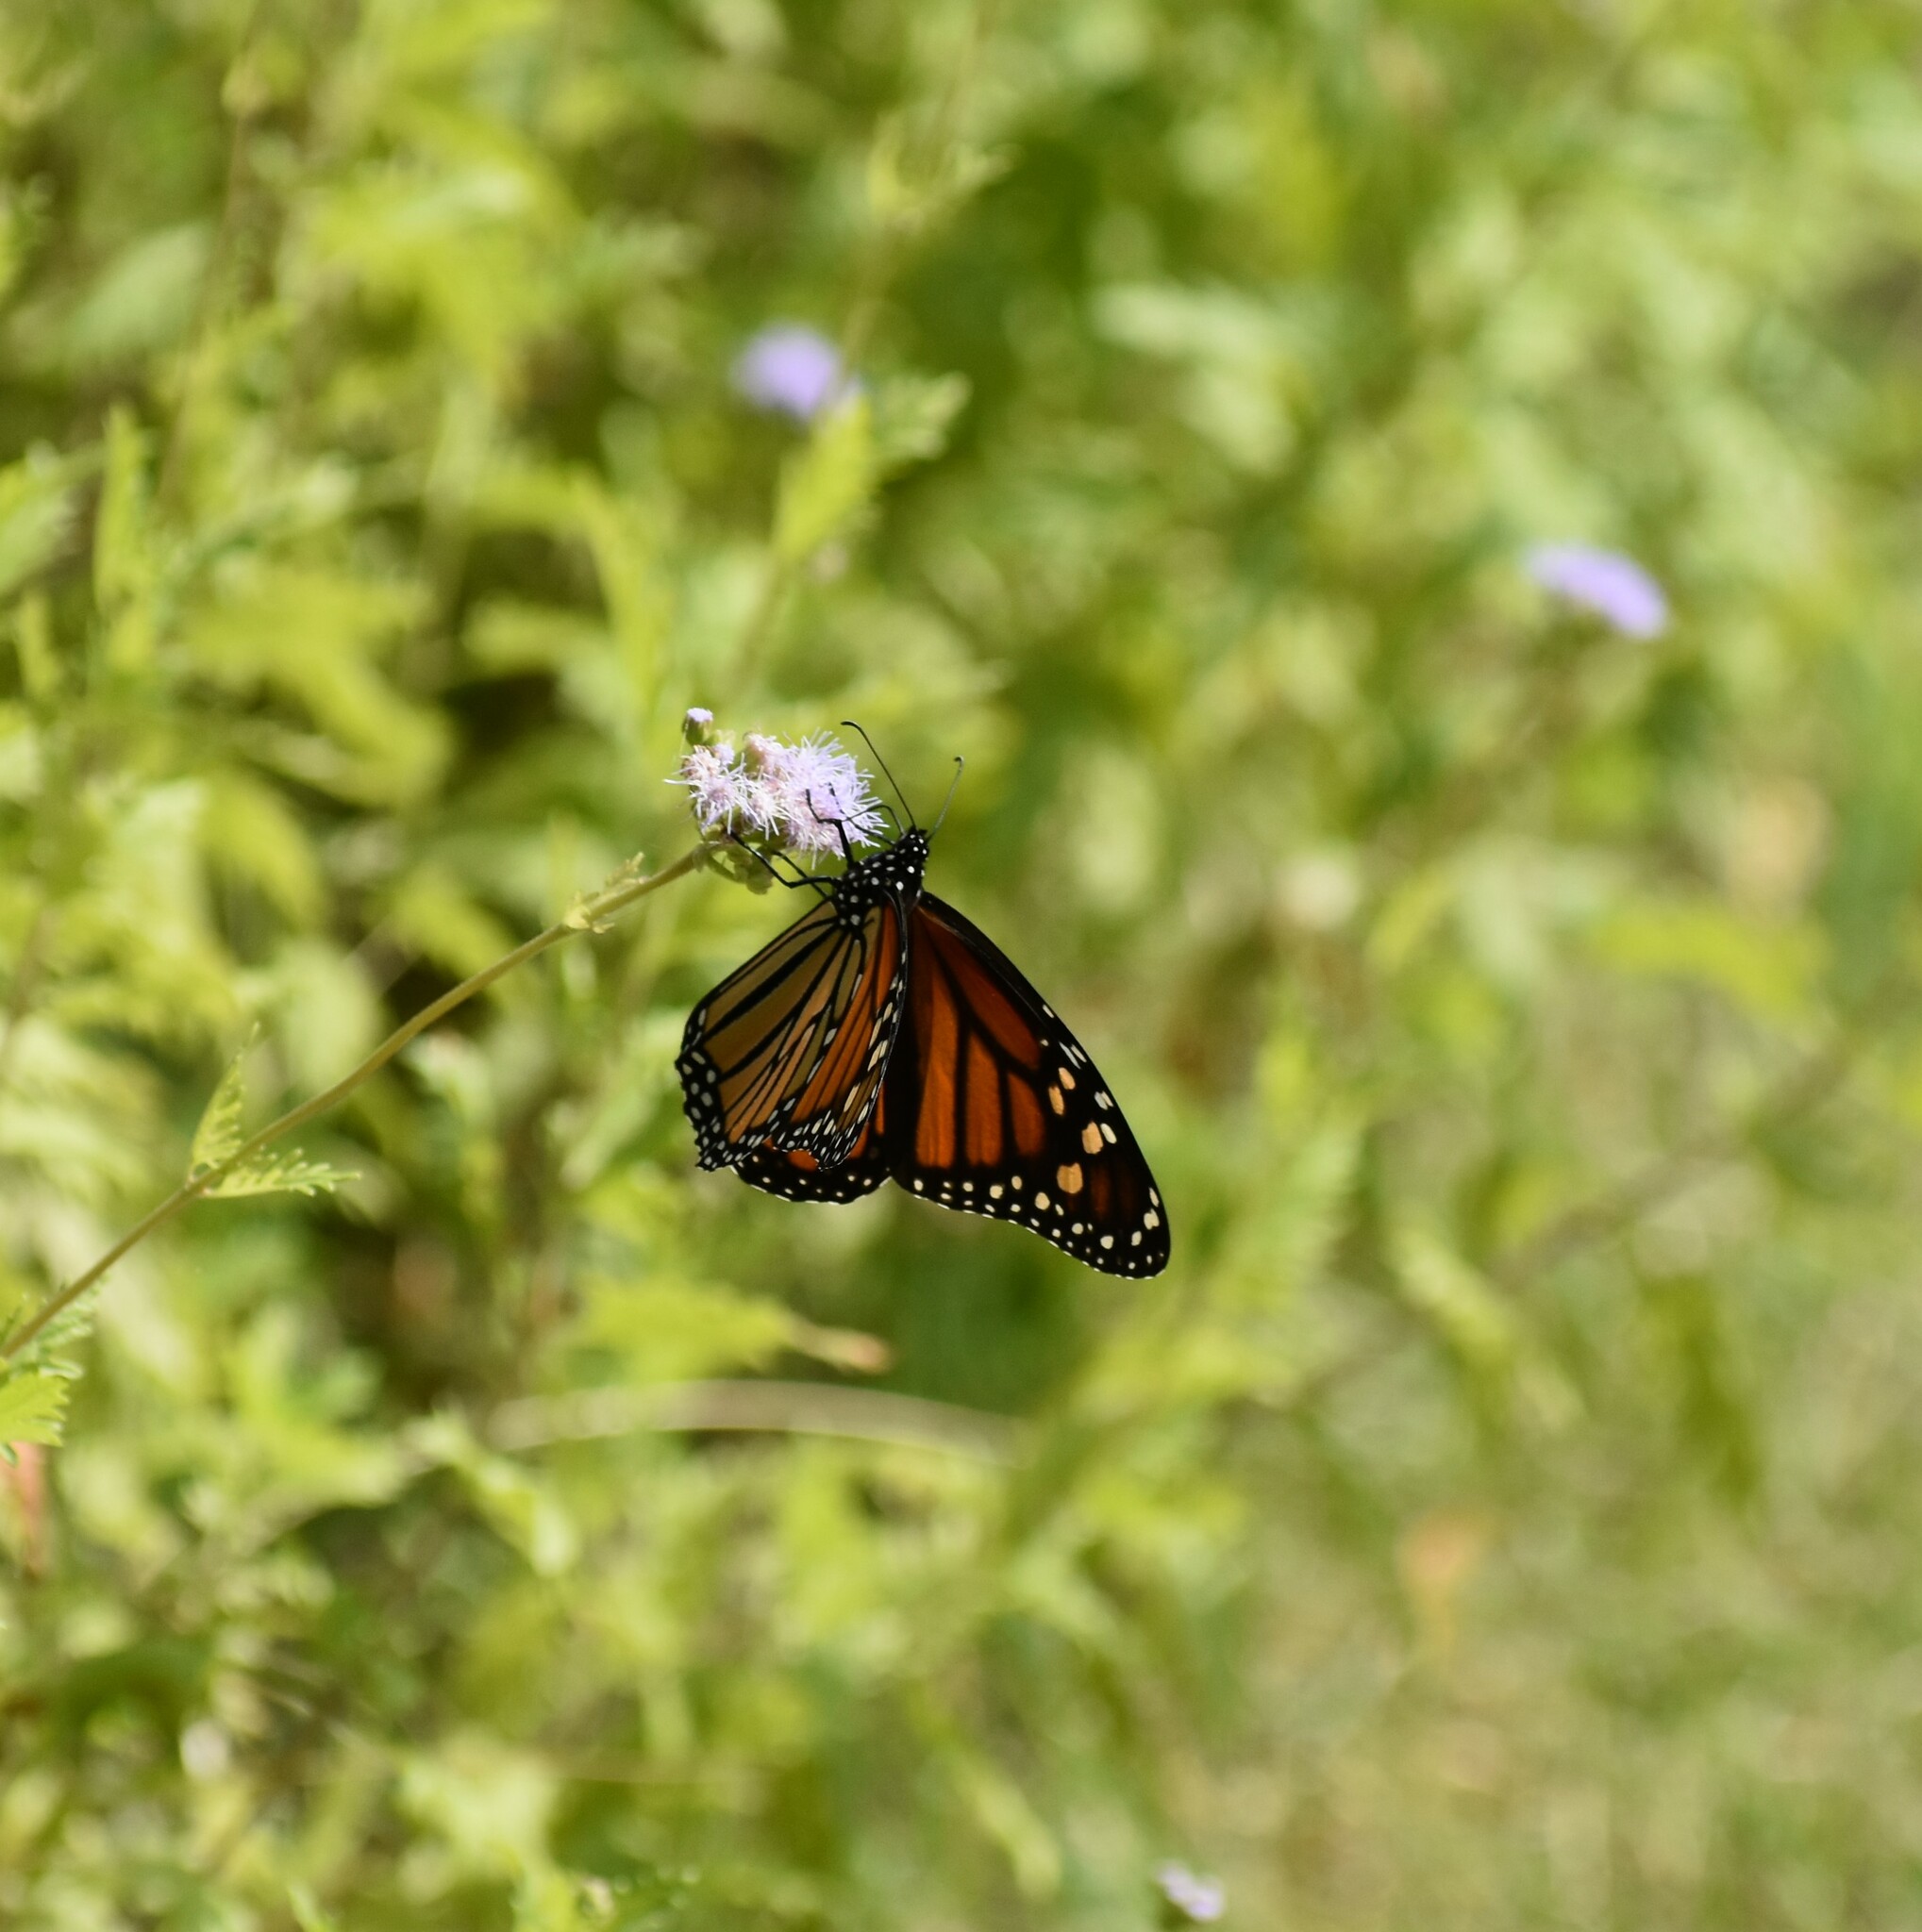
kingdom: Animalia
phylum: Arthropoda
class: Insecta
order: Lepidoptera
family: Nymphalidae
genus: Danaus
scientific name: Danaus plexippus
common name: Monarch
